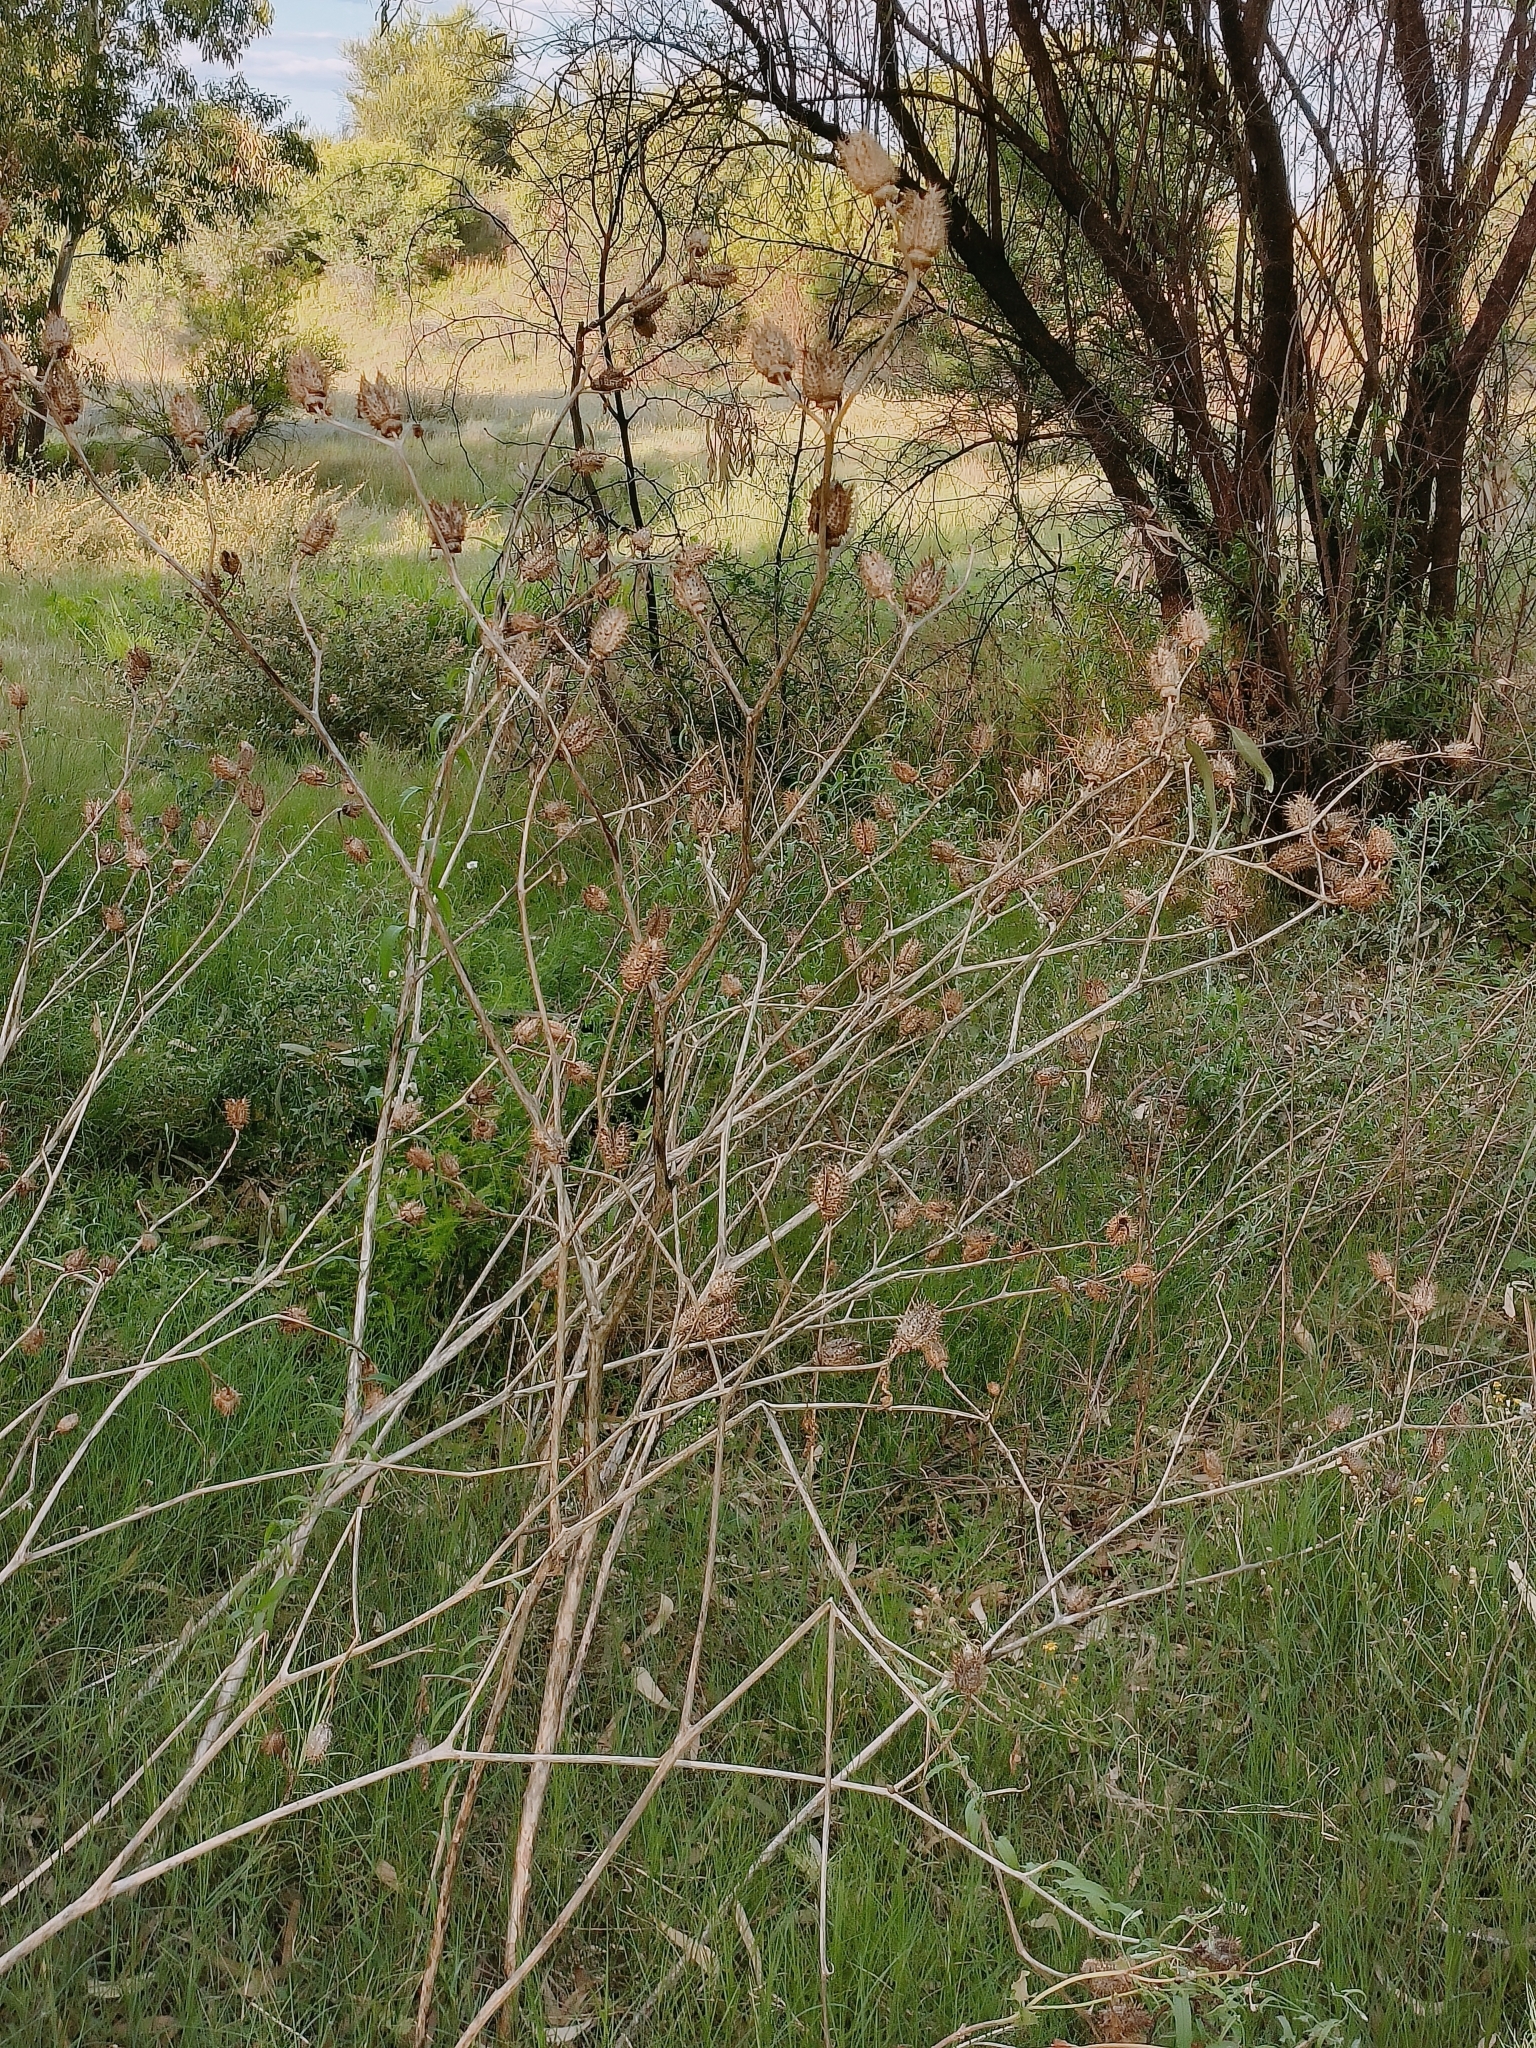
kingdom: Plantae
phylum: Tracheophyta
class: Magnoliopsida
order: Solanales
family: Solanaceae
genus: Datura
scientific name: Datura stramonium
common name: Thorn-apple
